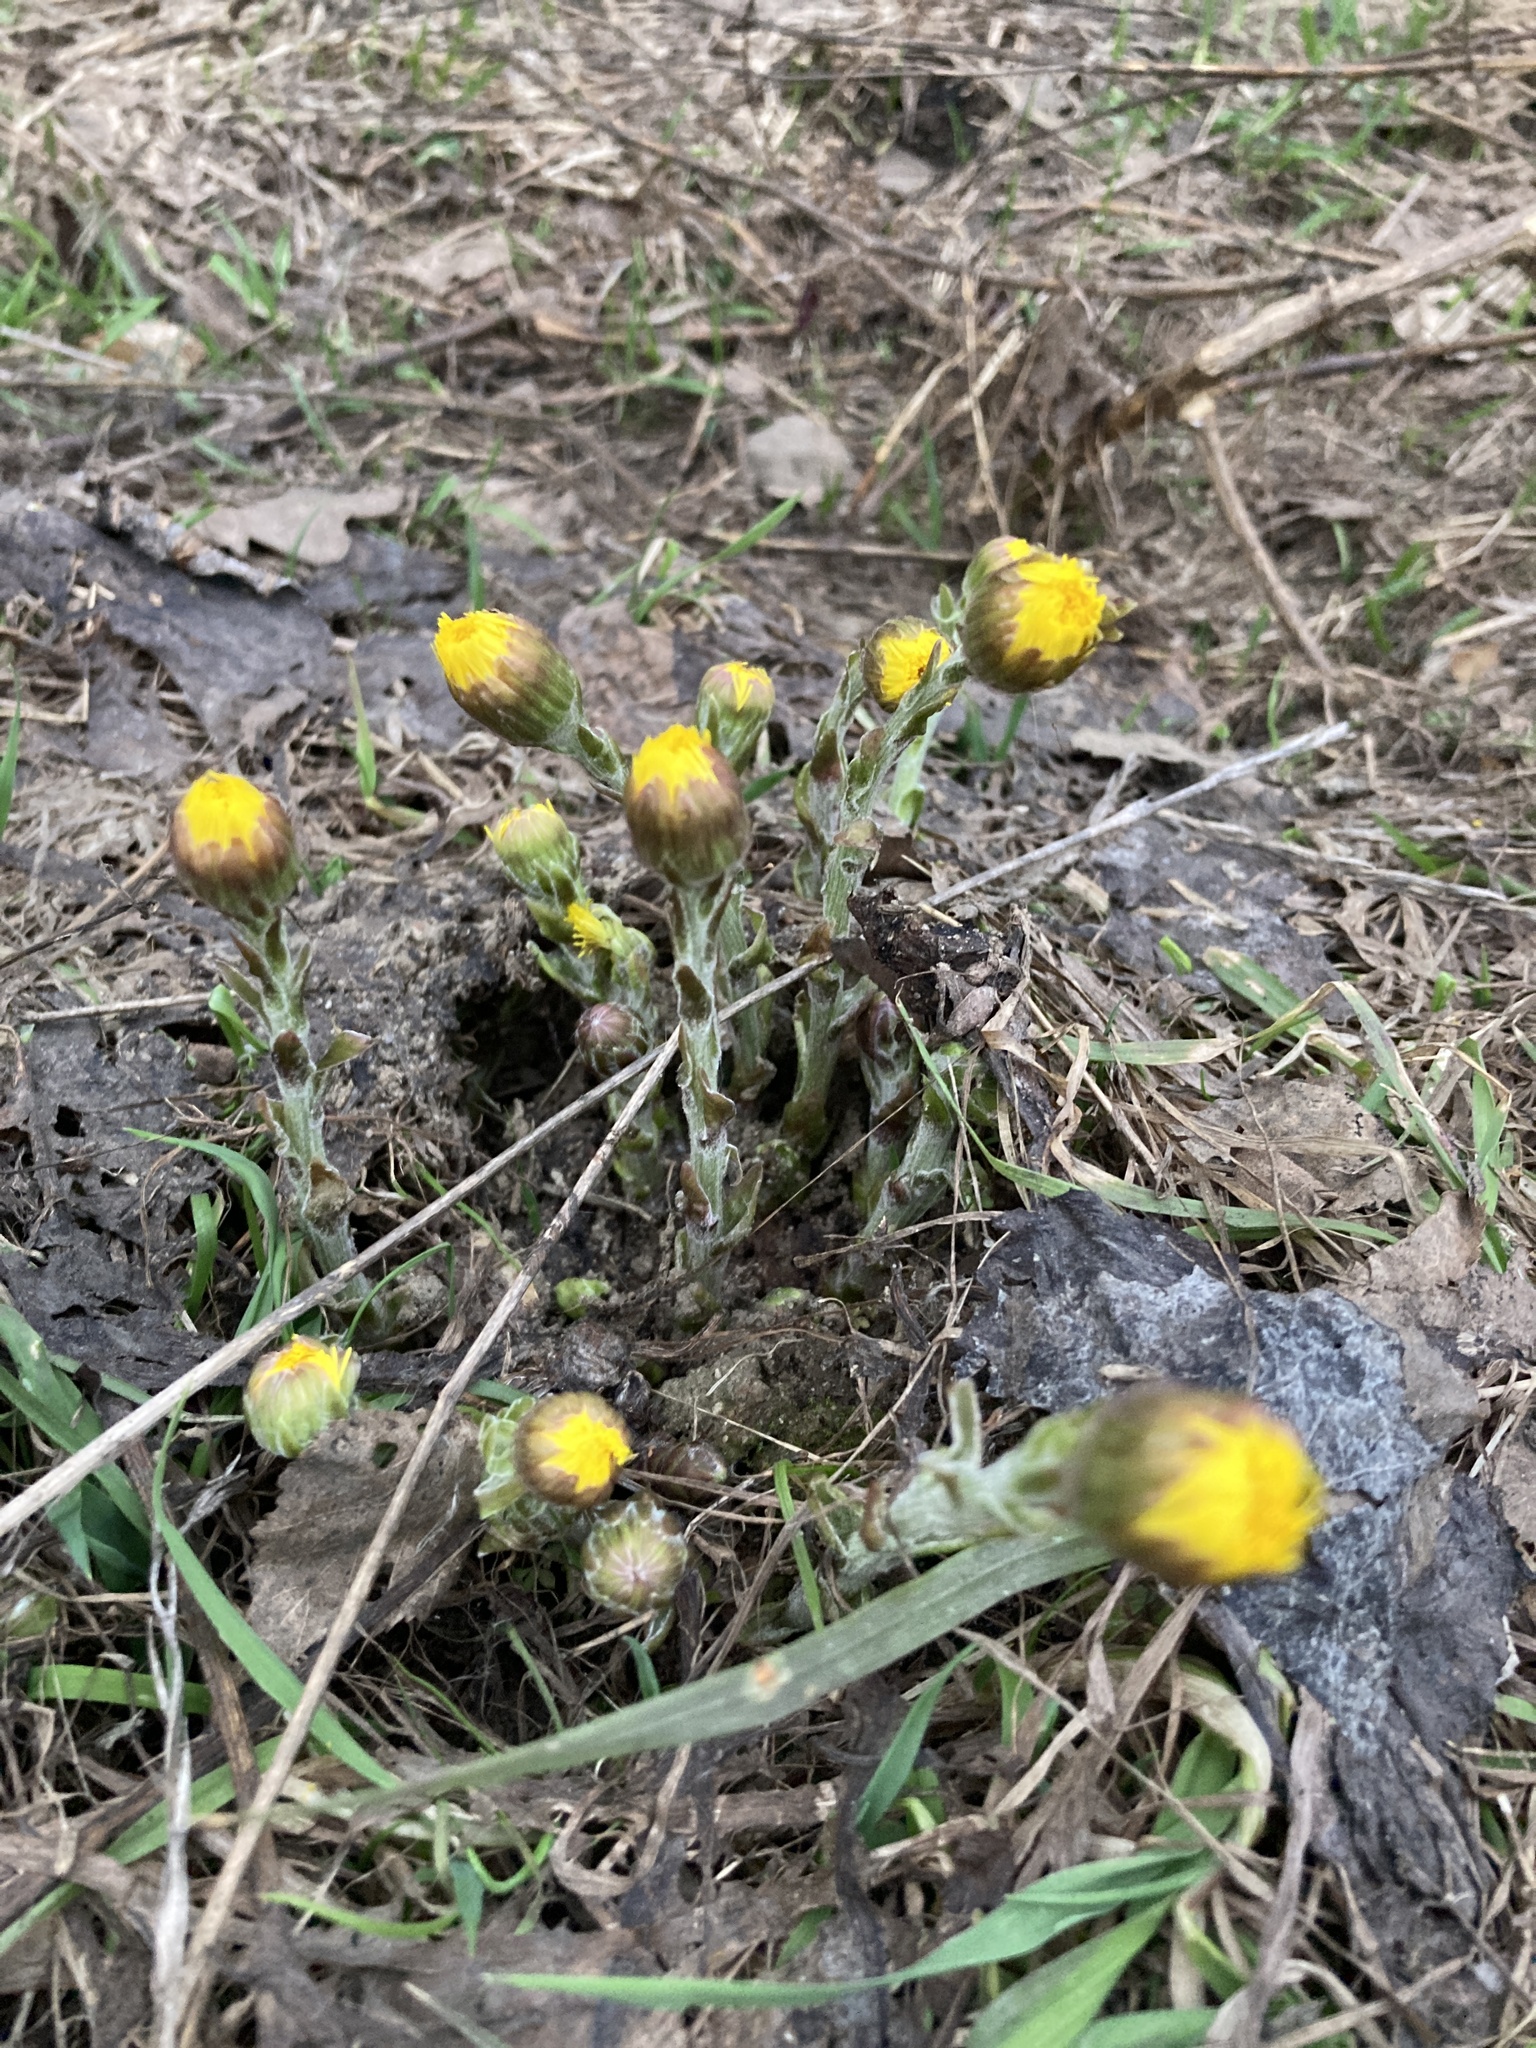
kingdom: Plantae
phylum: Tracheophyta
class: Magnoliopsida
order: Asterales
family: Asteraceae
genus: Tussilago
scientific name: Tussilago farfara
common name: Coltsfoot
